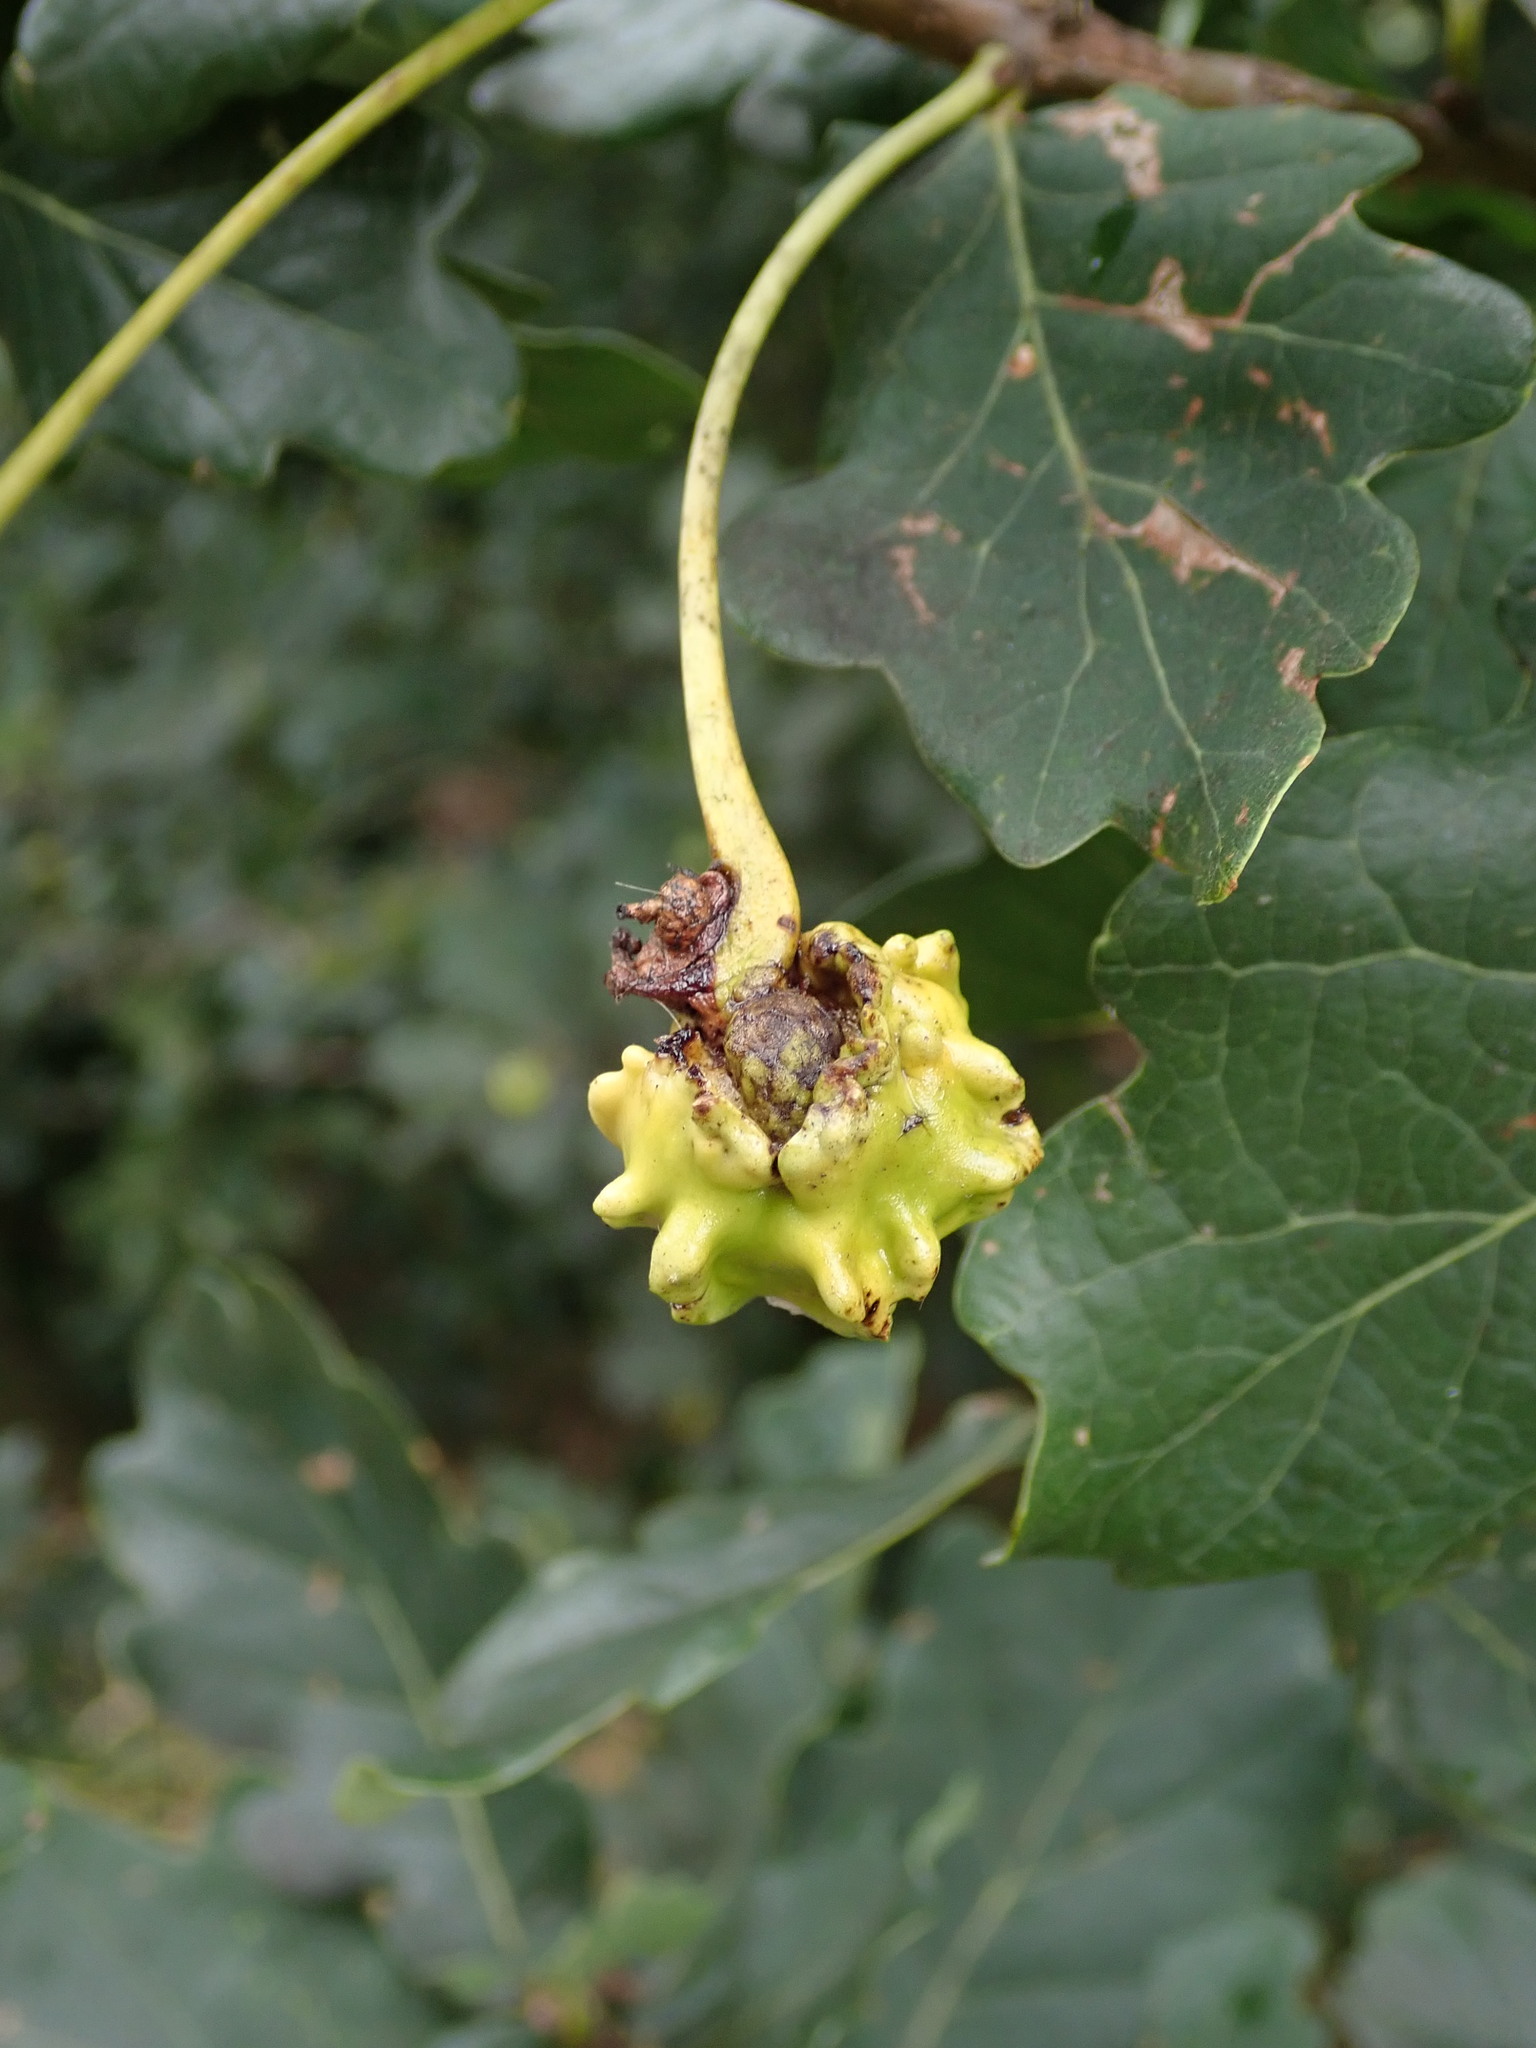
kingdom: Animalia
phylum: Arthropoda
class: Insecta
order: Hymenoptera
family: Cynipidae
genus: Andricus
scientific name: Andricus quercuscalicis
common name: Knopper gall
